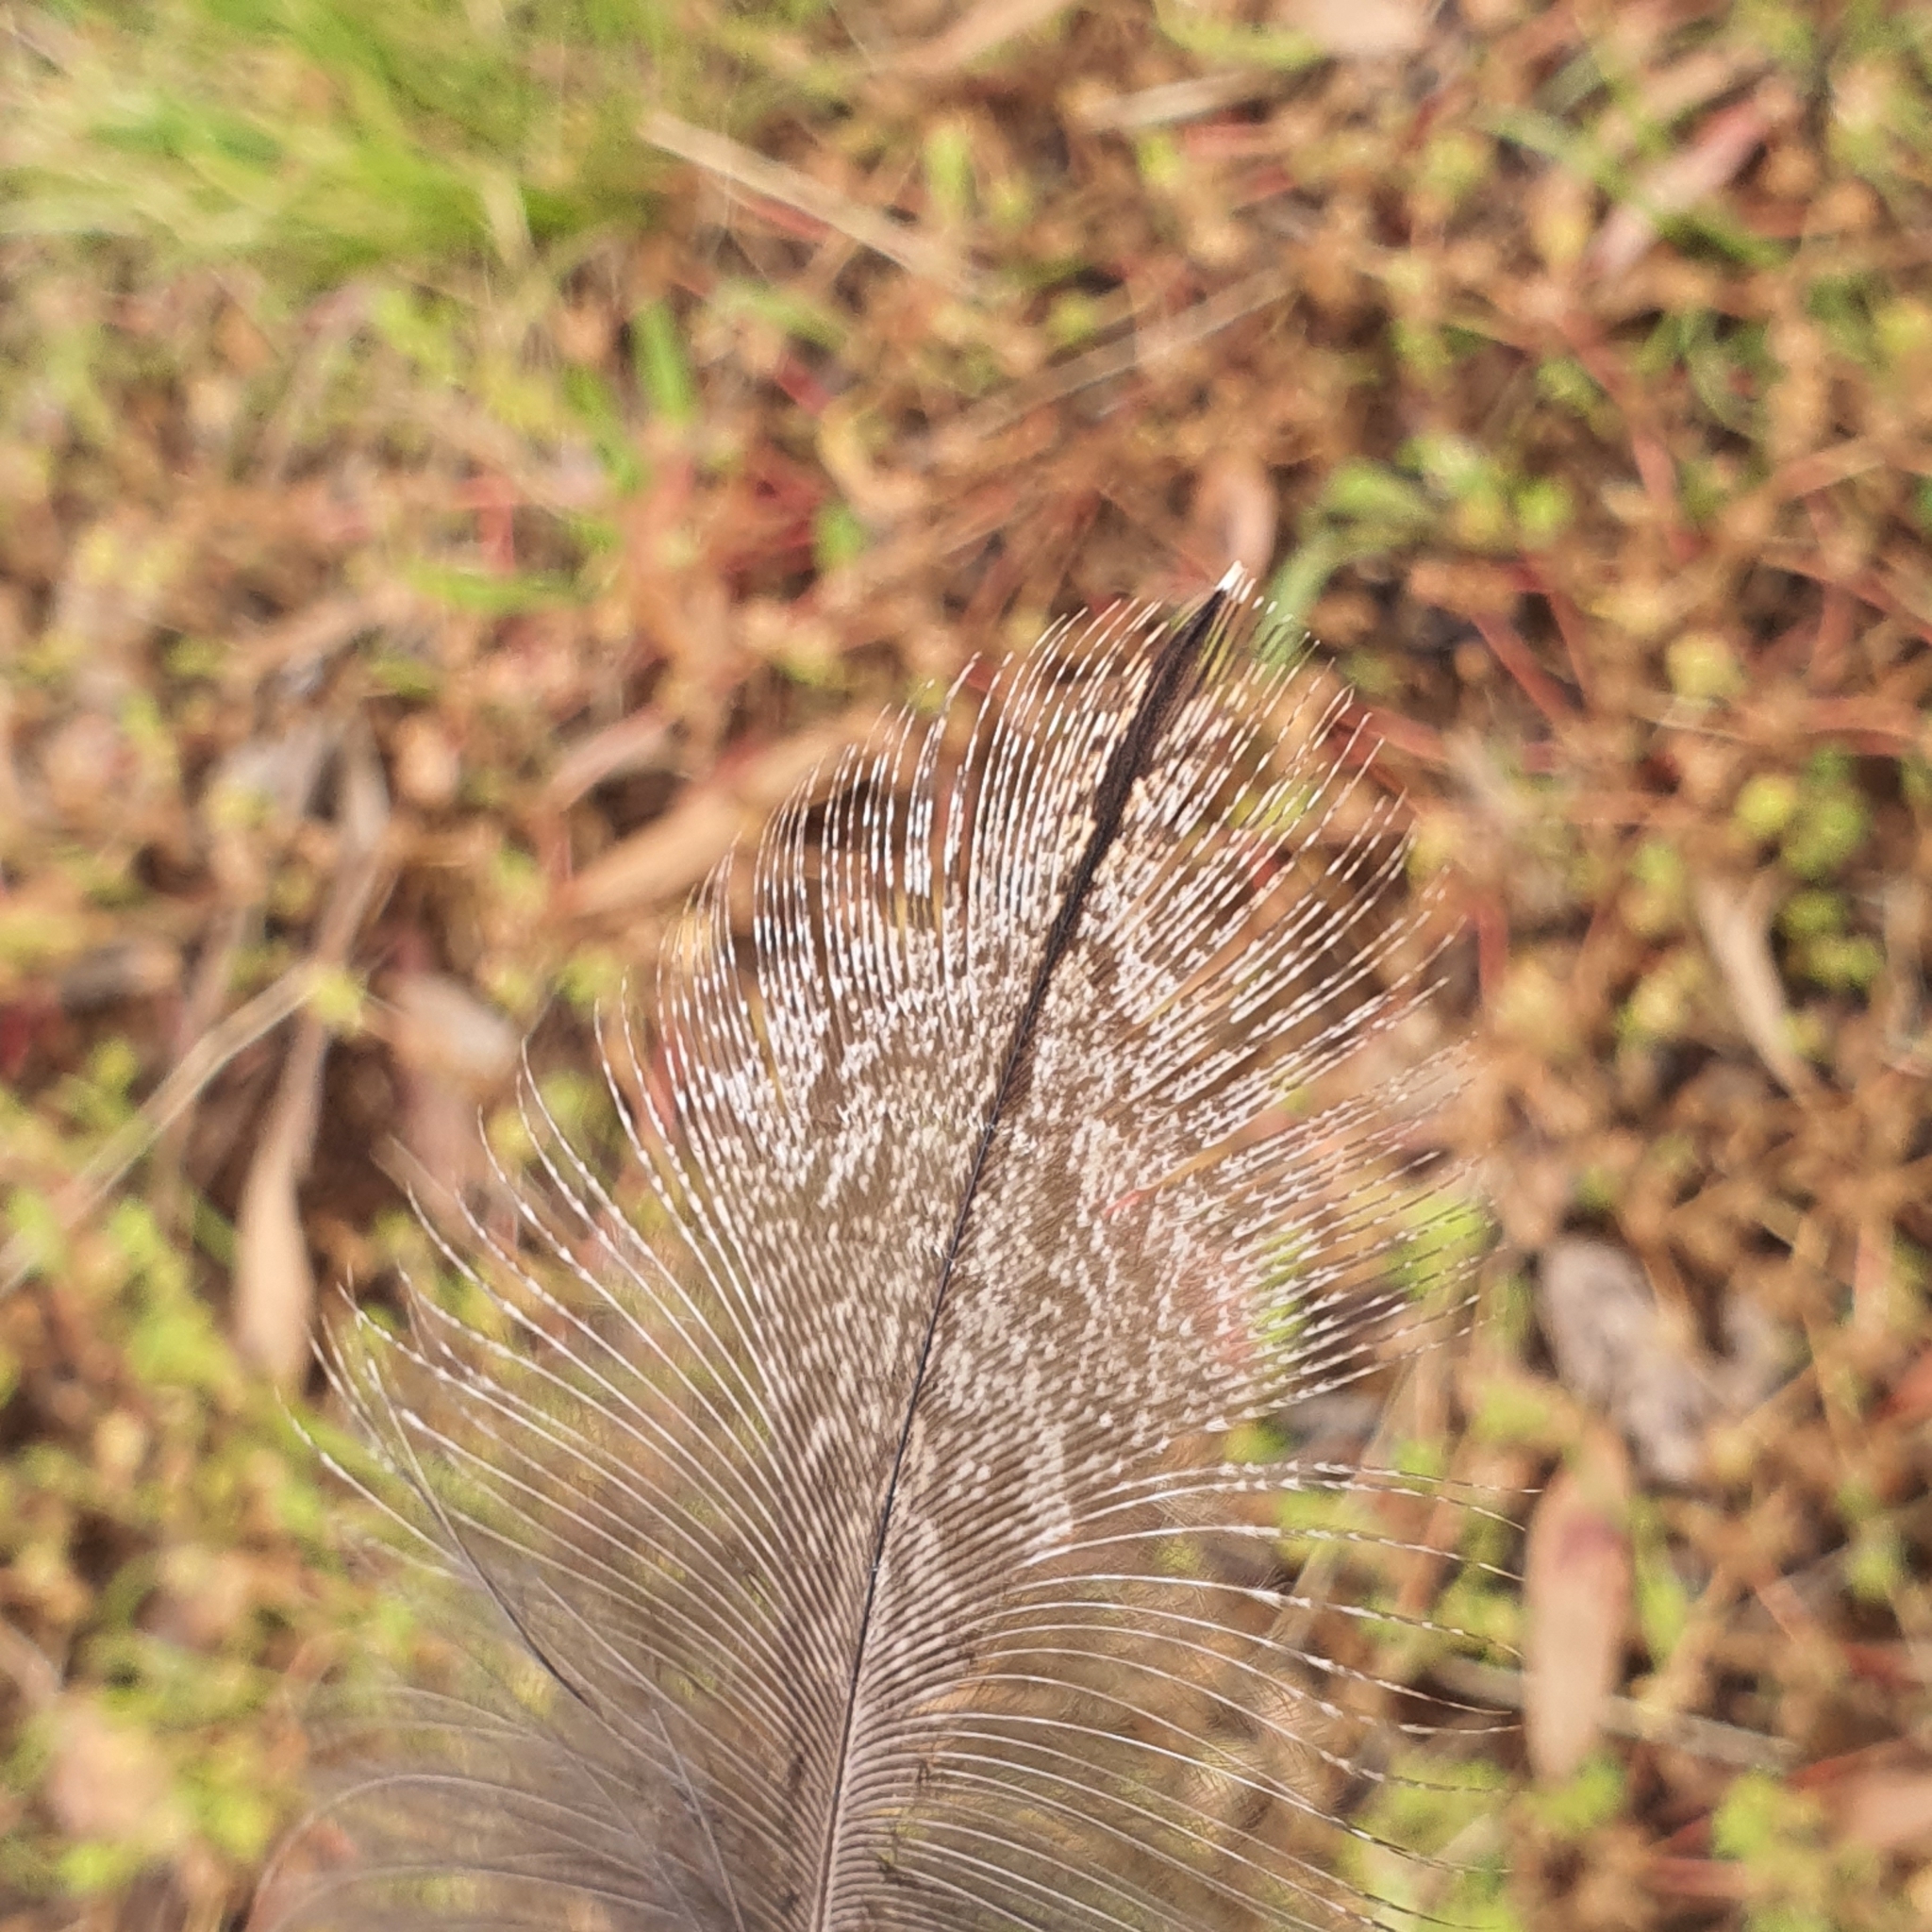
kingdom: Animalia
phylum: Chordata
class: Aves
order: Caprimulgiformes
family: Podargidae
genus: Podargus
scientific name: Podargus strigoides
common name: Tawny frogmouth
